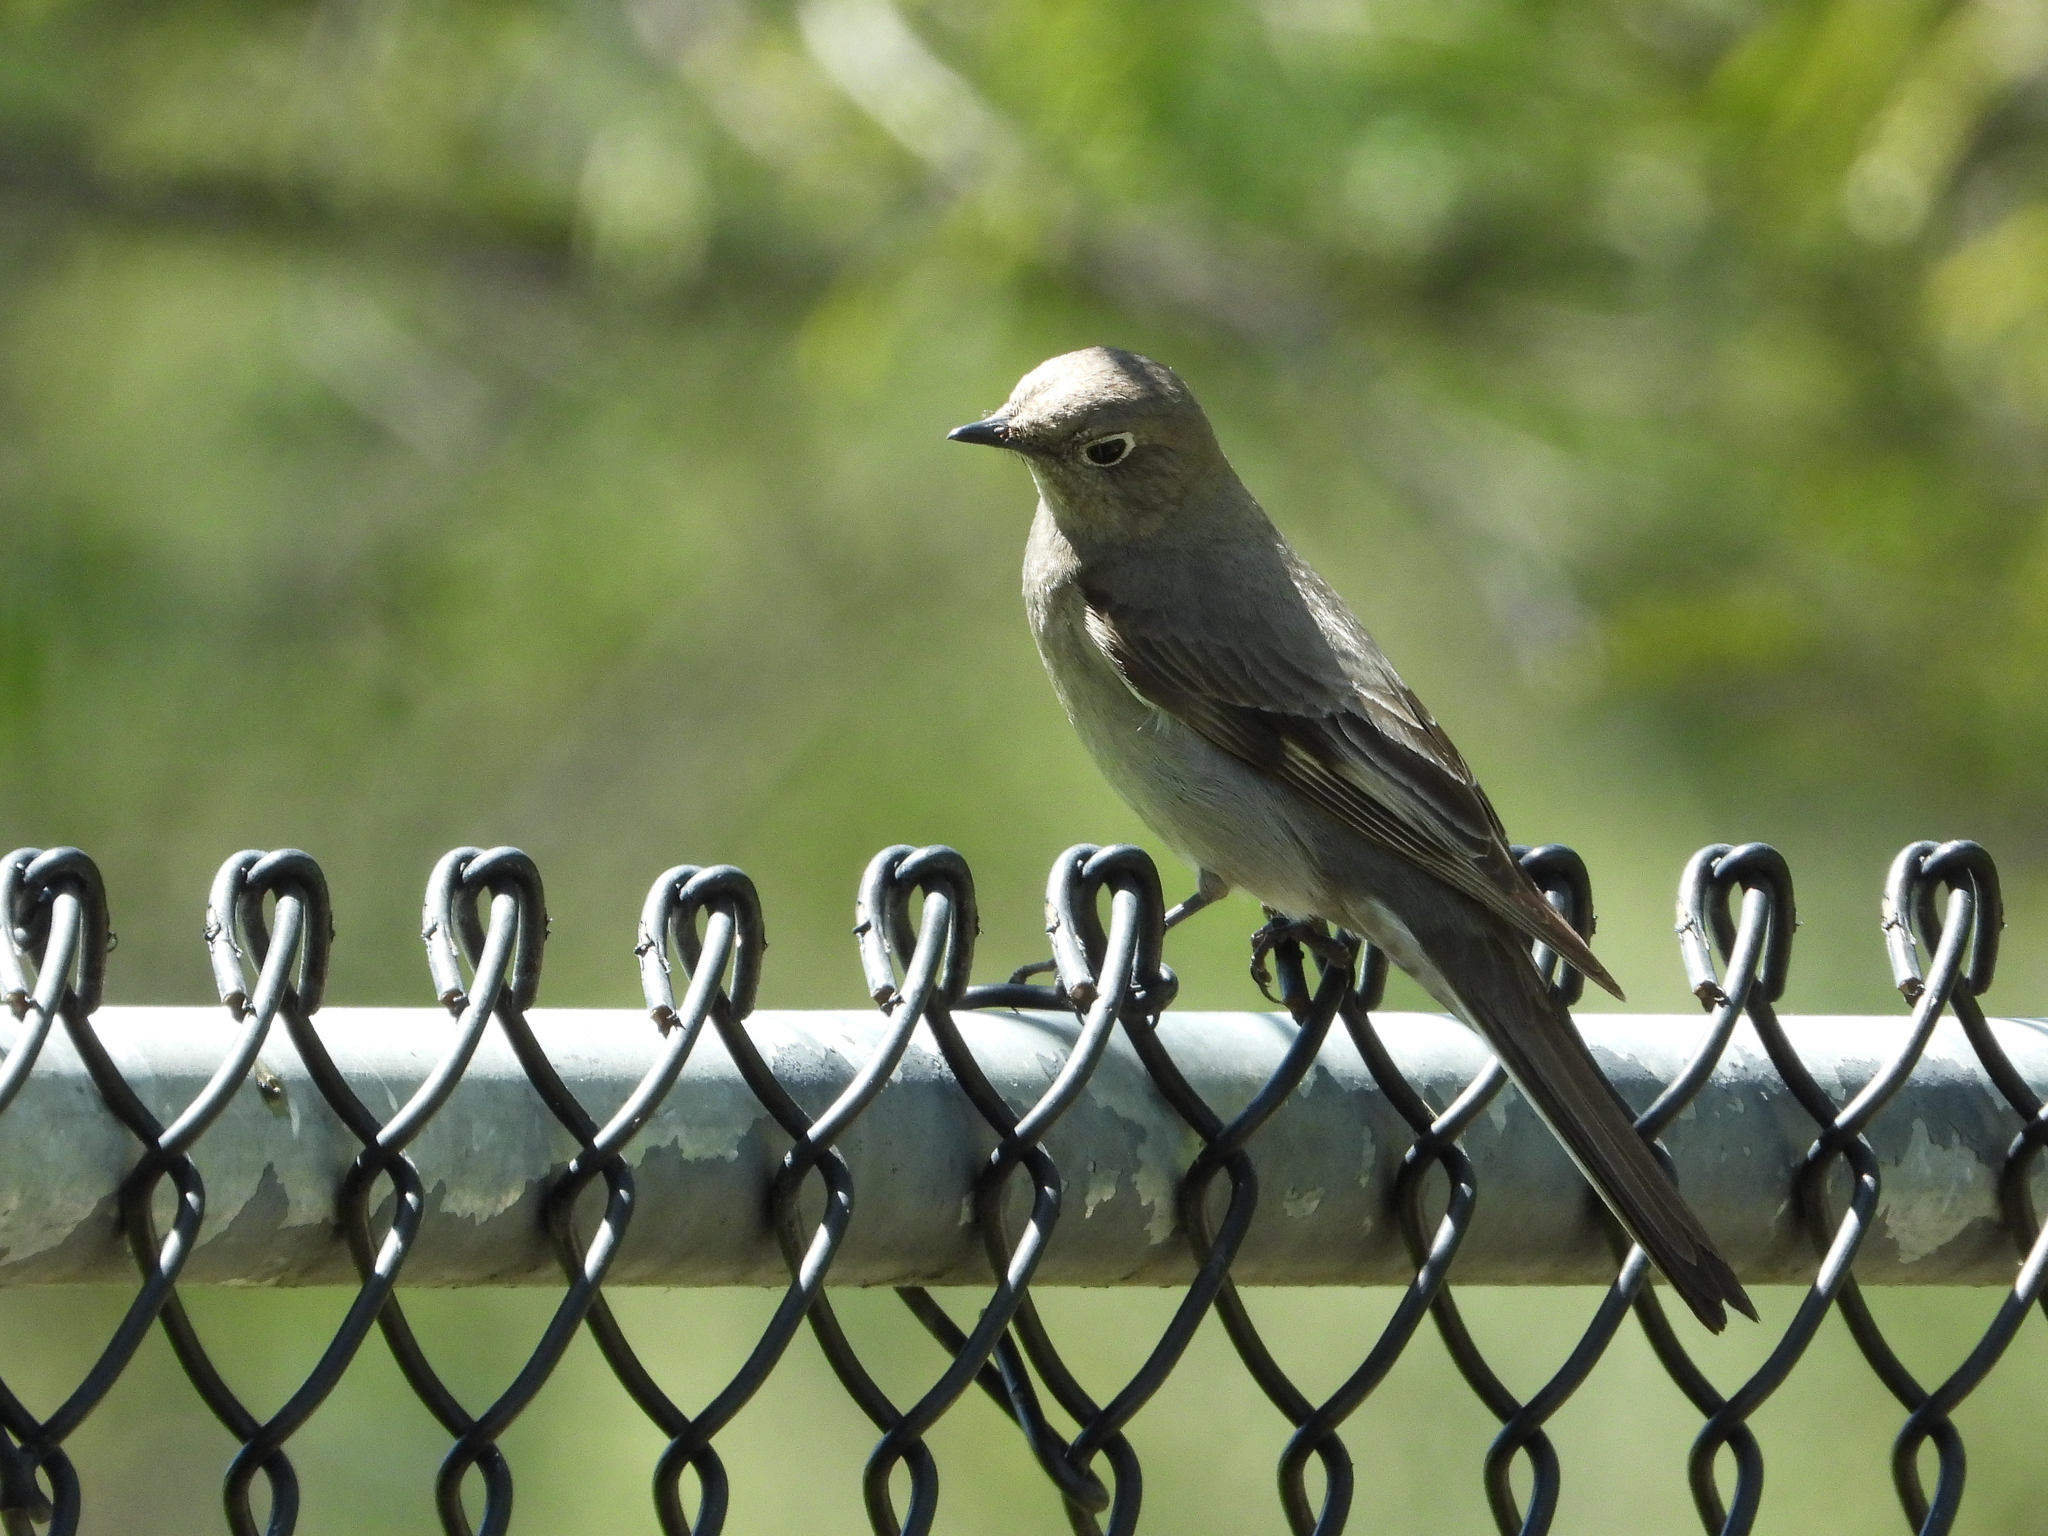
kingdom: Animalia
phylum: Chordata
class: Aves
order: Passeriformes
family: Turdidae
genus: Myadestes
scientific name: Myadestes townsendi
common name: Townsend's solitaire
